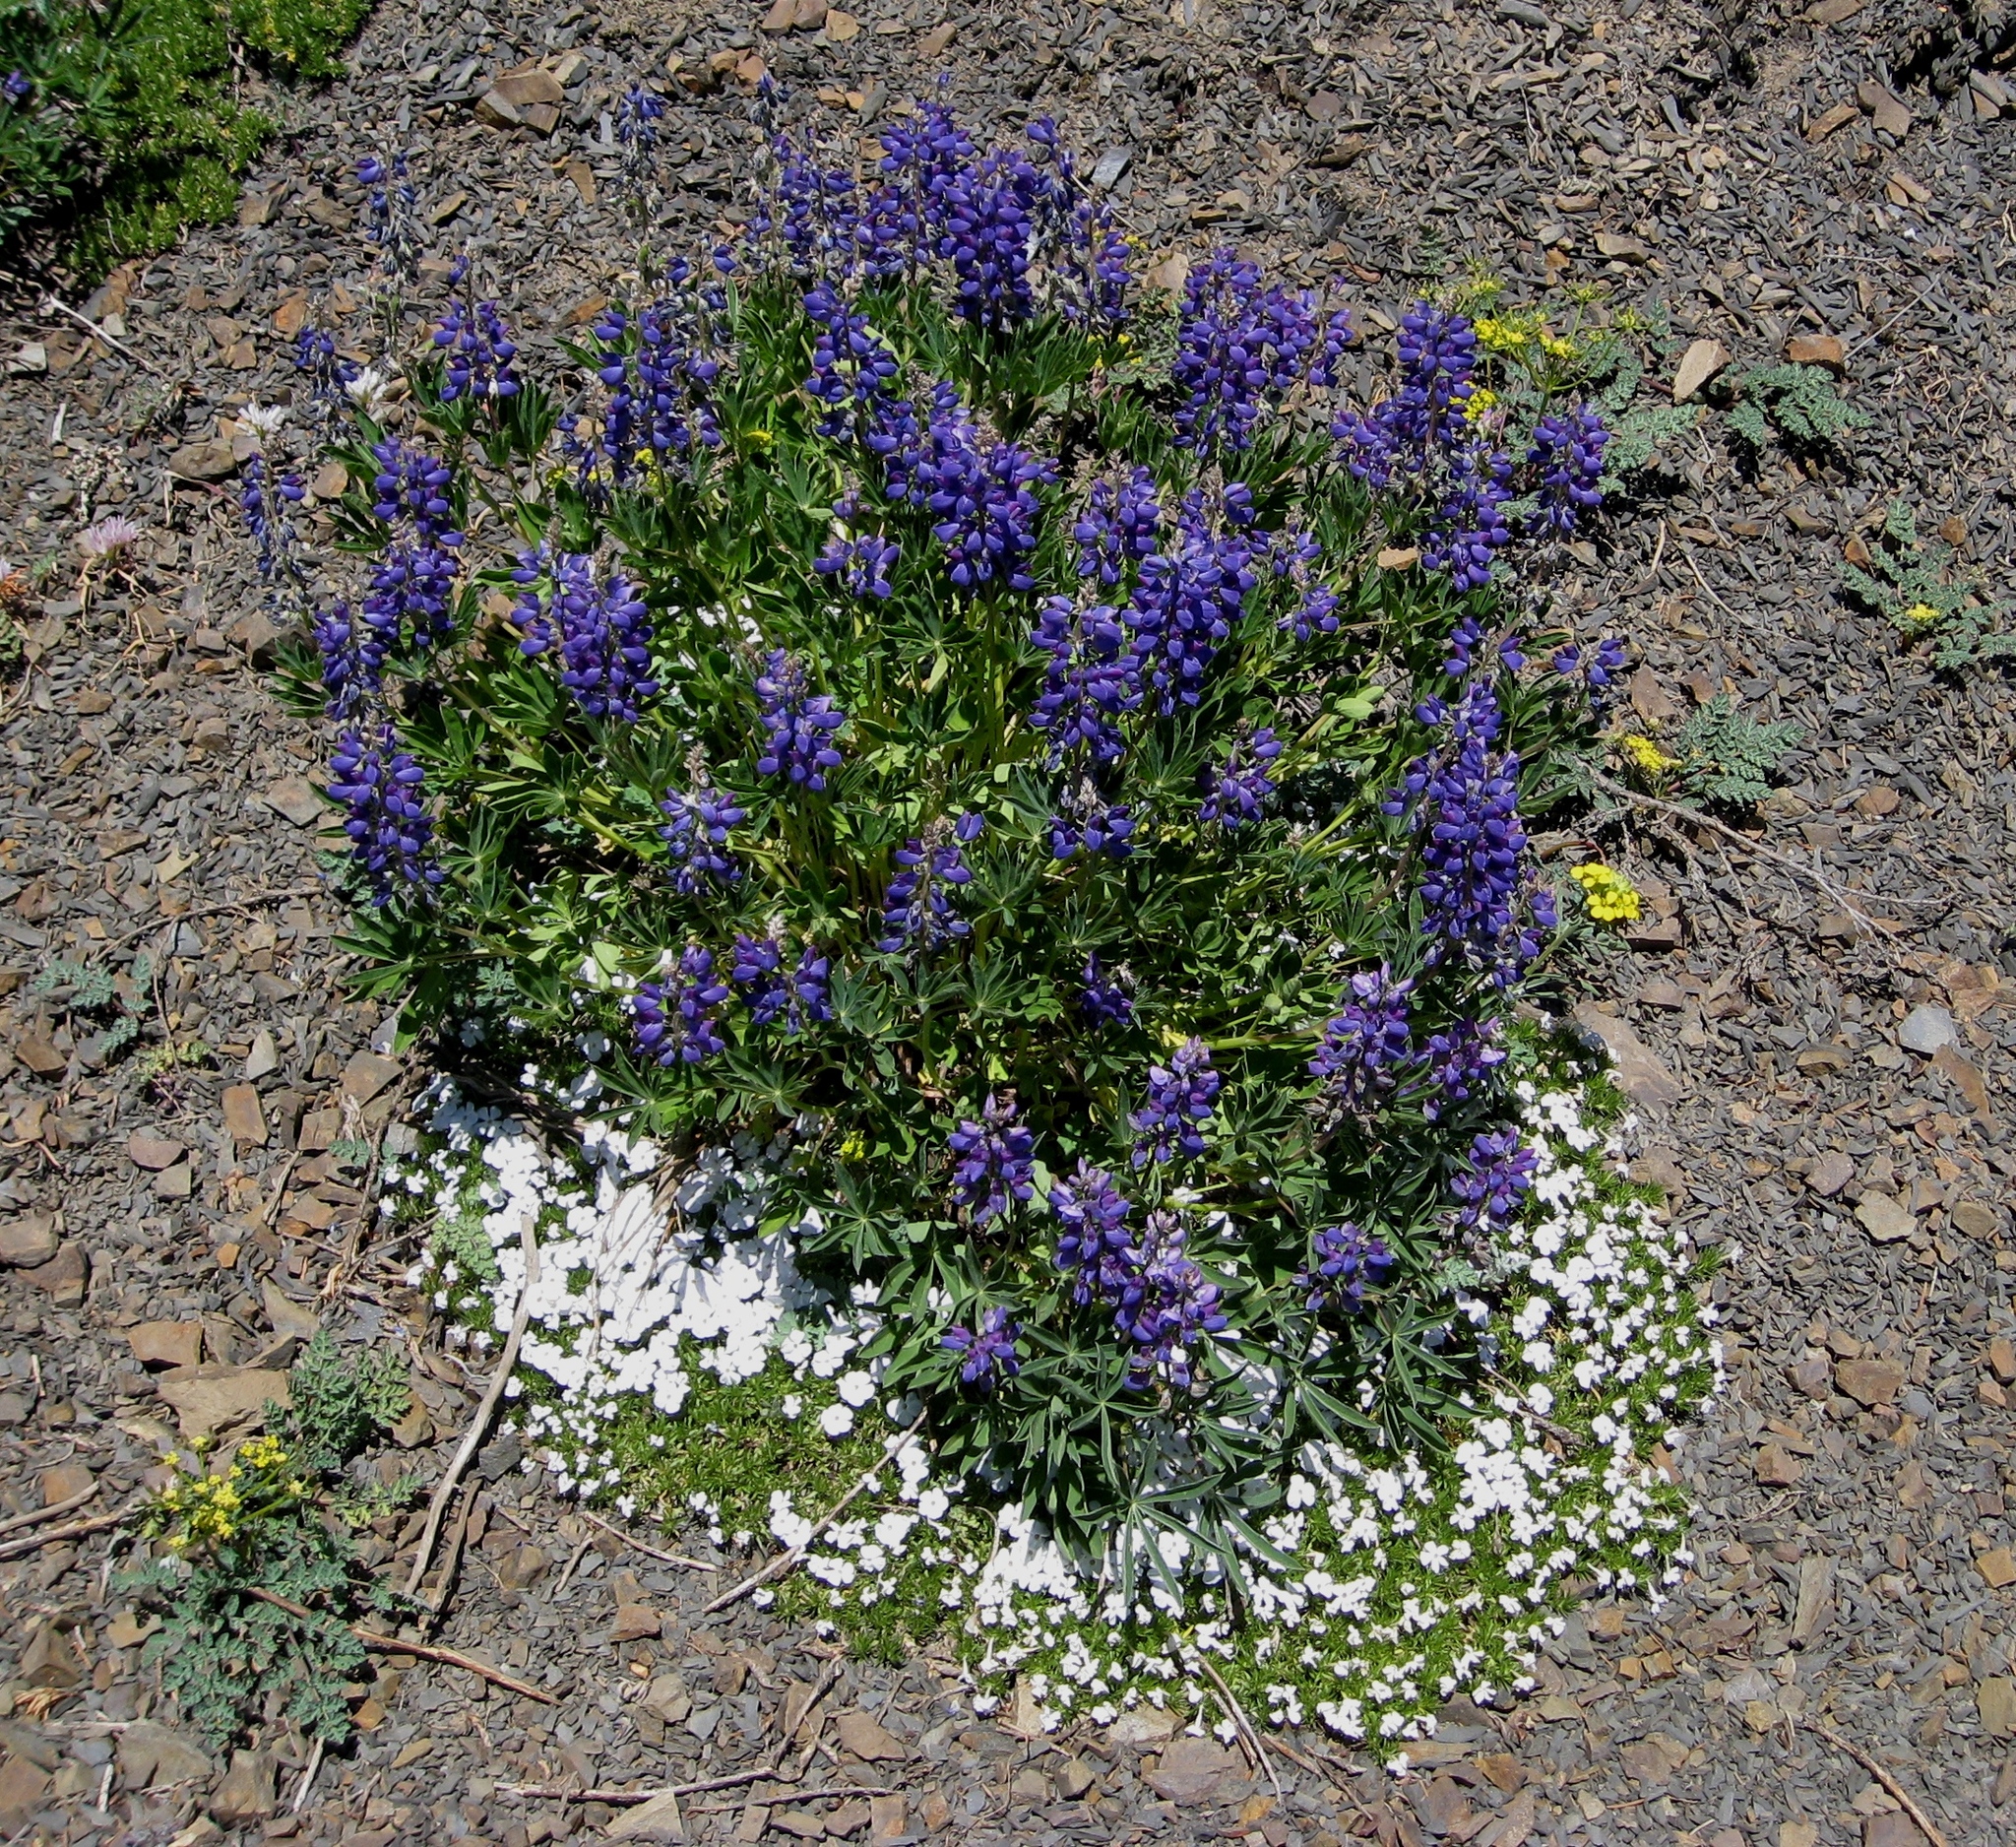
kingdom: Plantae
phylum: Tracheophyta
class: Magnoliopsida
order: Ericales
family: Polemoniaceae
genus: Phlox
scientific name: Phlox diffusa
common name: Mat phlox
